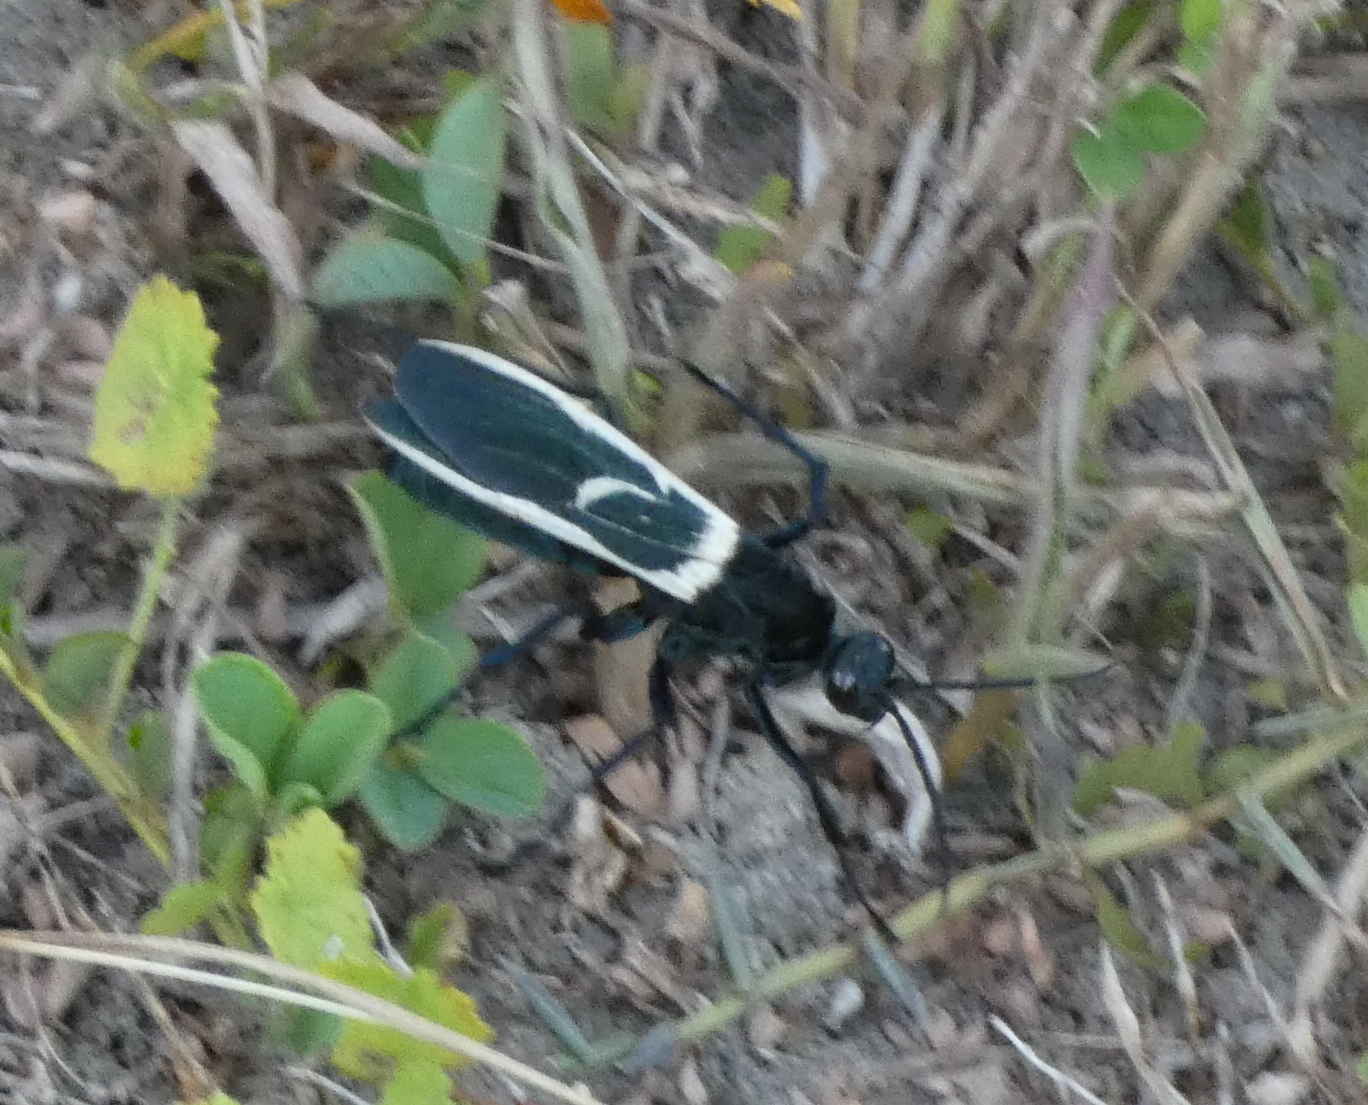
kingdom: Animalia
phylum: Arthropoda
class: Insecta
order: Hymenoptera
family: Pompilidae
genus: Pepsis
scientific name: Pepsis decorata
